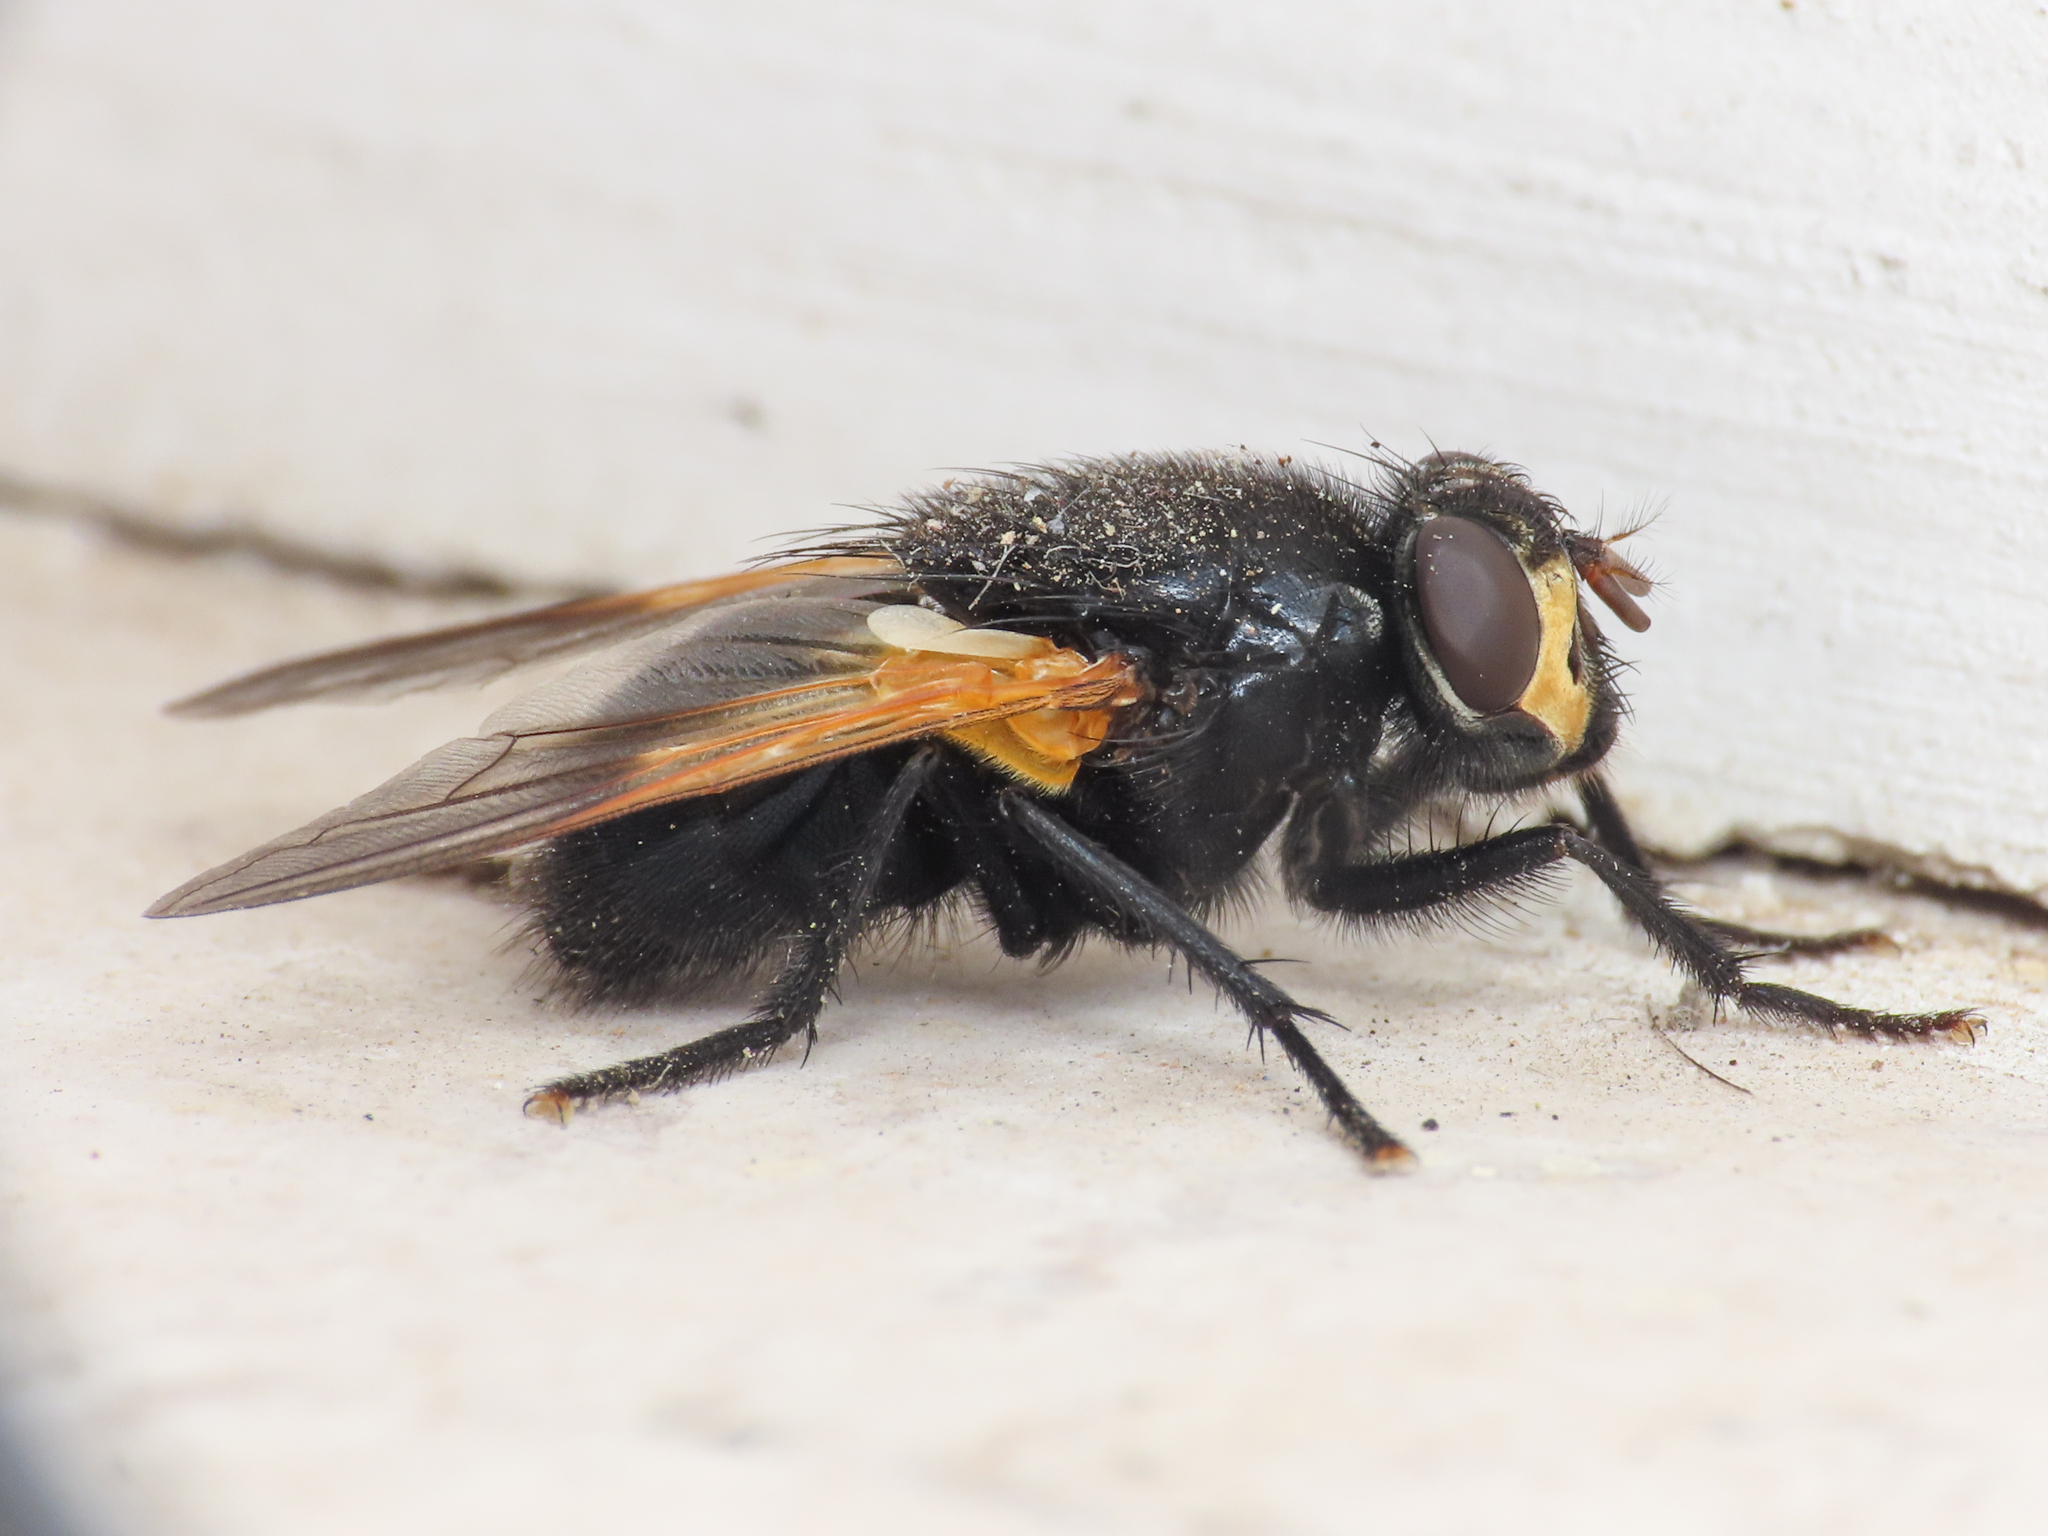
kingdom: Animalia
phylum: Arthropoda
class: Insecta
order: Diptera
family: Muscidae
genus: Mesembrina
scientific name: Mesembrina meridiana
